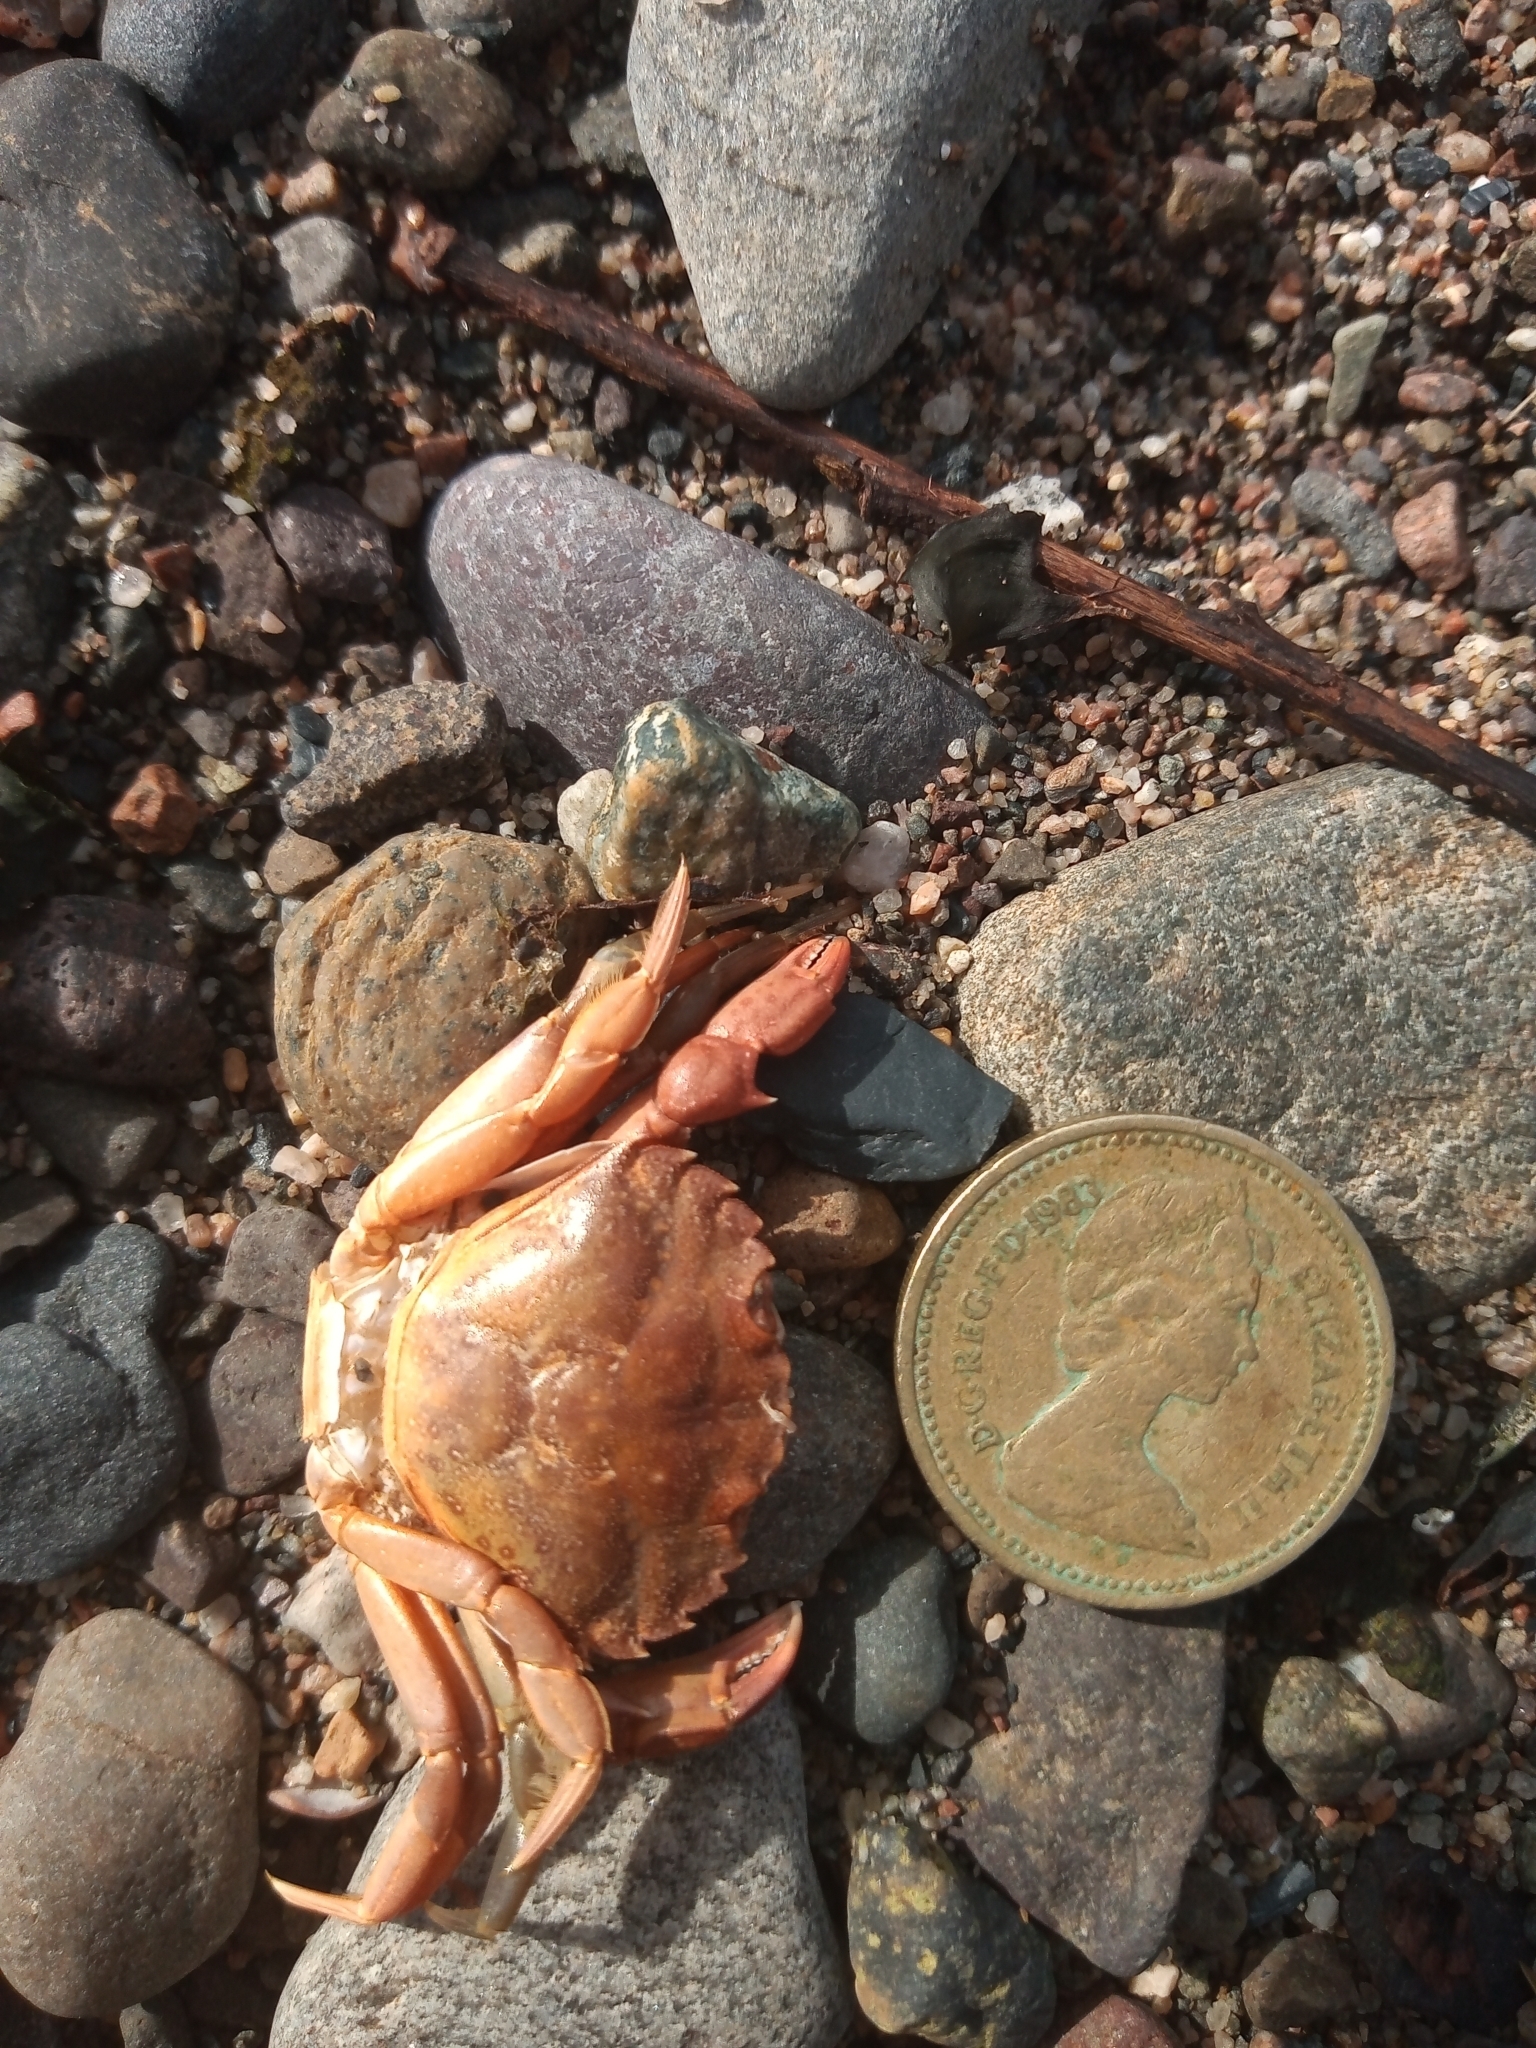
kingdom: Animalia
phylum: Arthropoda
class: Malacostraca
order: Decapoda
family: Carcinidae
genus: Carcinus
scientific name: Carcinus maenas
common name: European green crab
